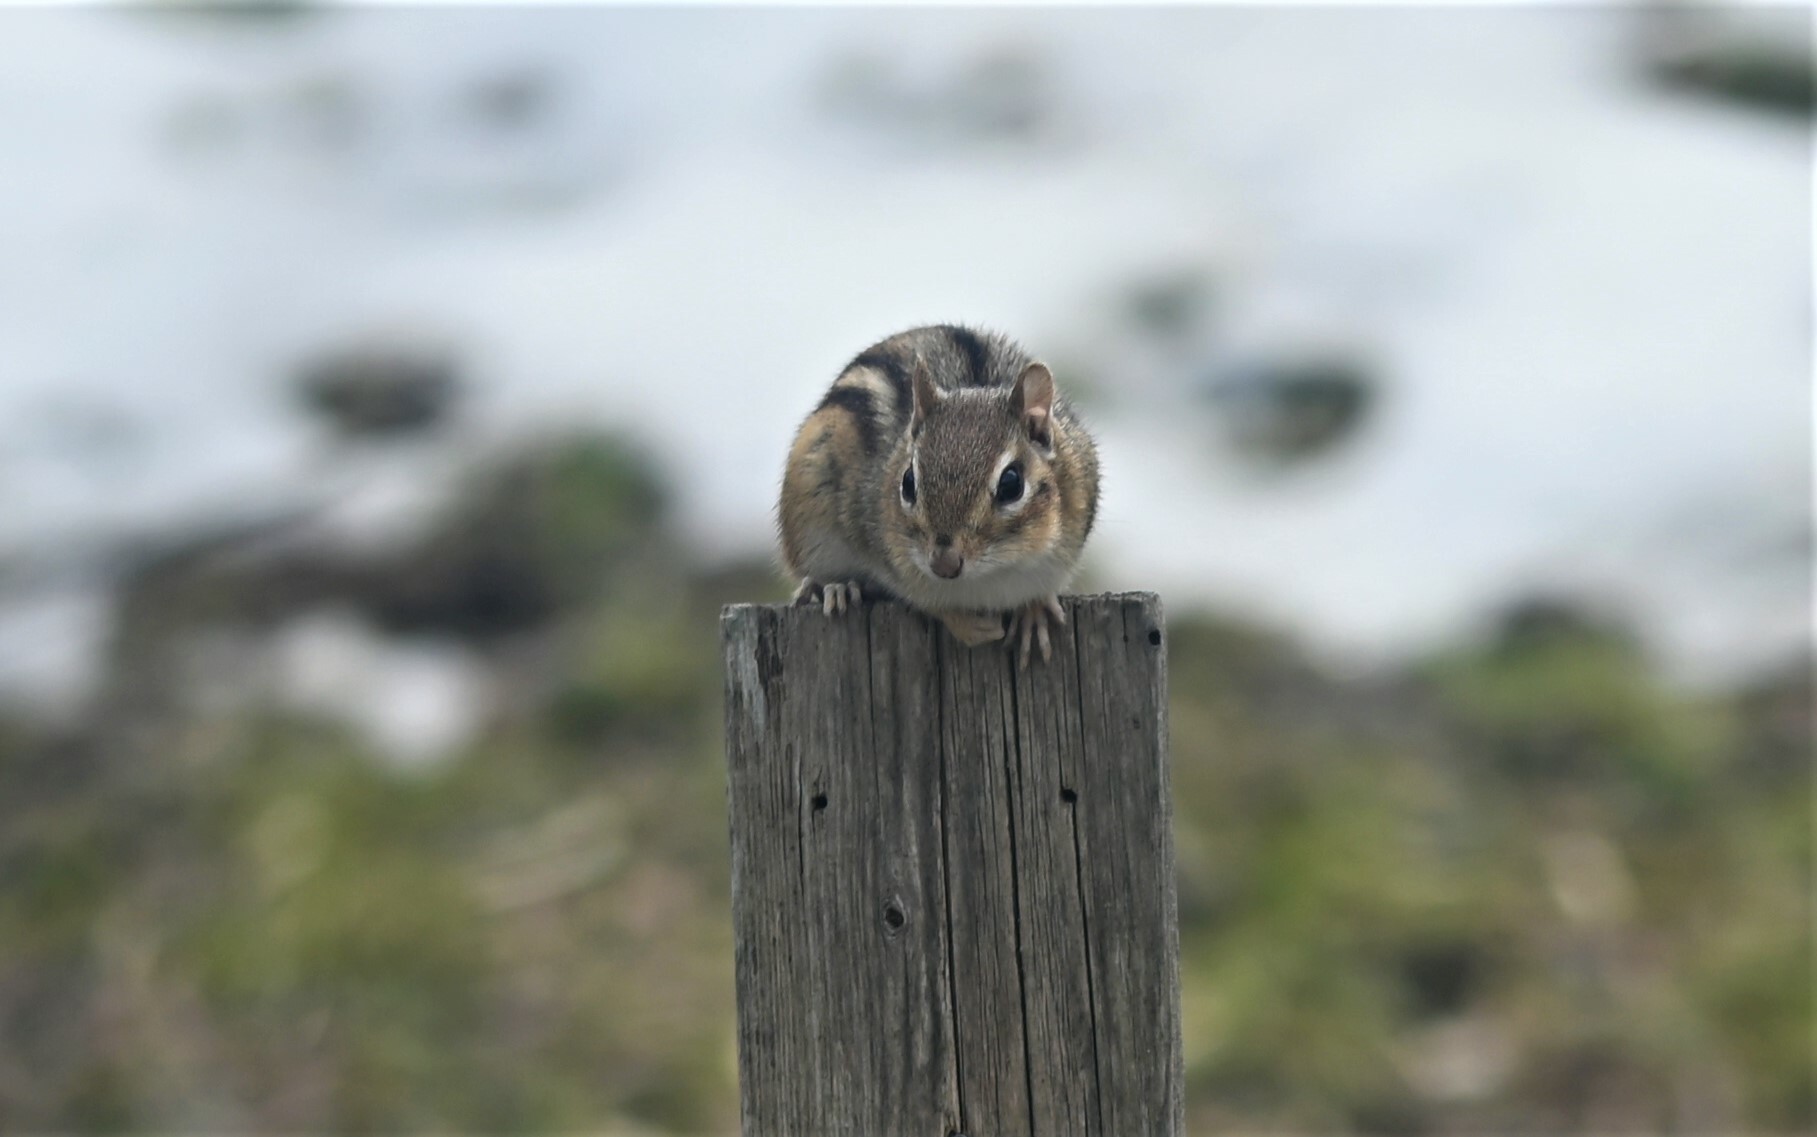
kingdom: Animalia
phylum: Chordata
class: Mammalia
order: Rodentia
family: Sciuridae
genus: Tamias
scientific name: Tamias striatus
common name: Eastern chipmunk
